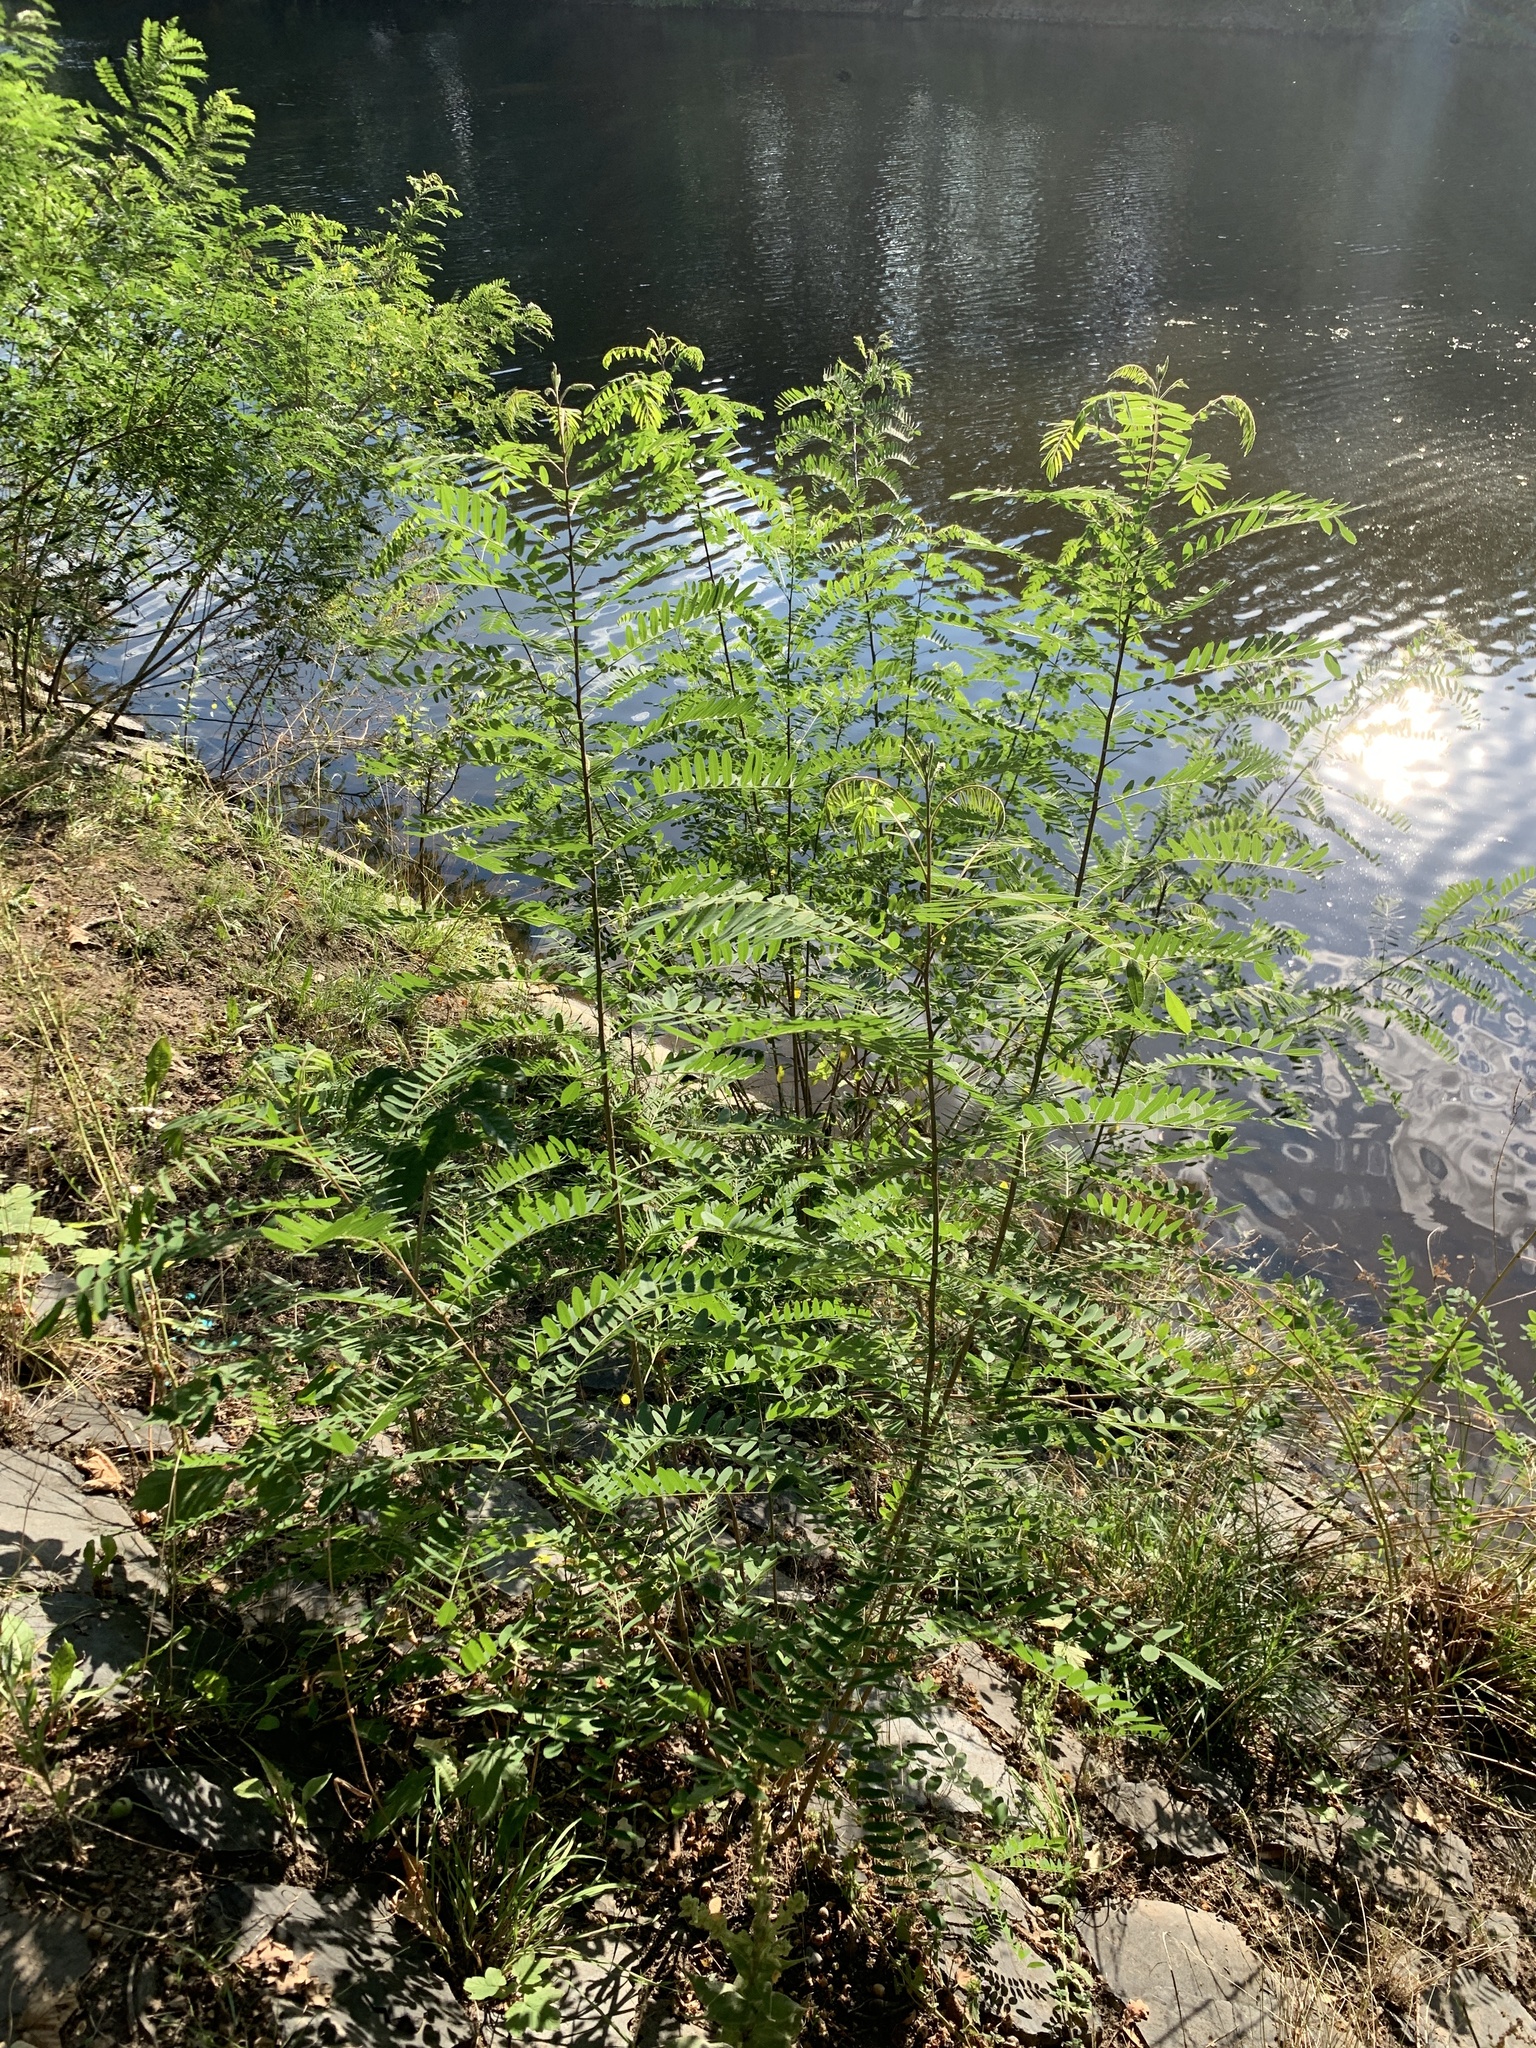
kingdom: Plantae
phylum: Tracheophyta
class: Magnoliopsida
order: Fabales
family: Fabaceae
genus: Amorpha
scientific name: Amorpha fruticosa
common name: False indigo
